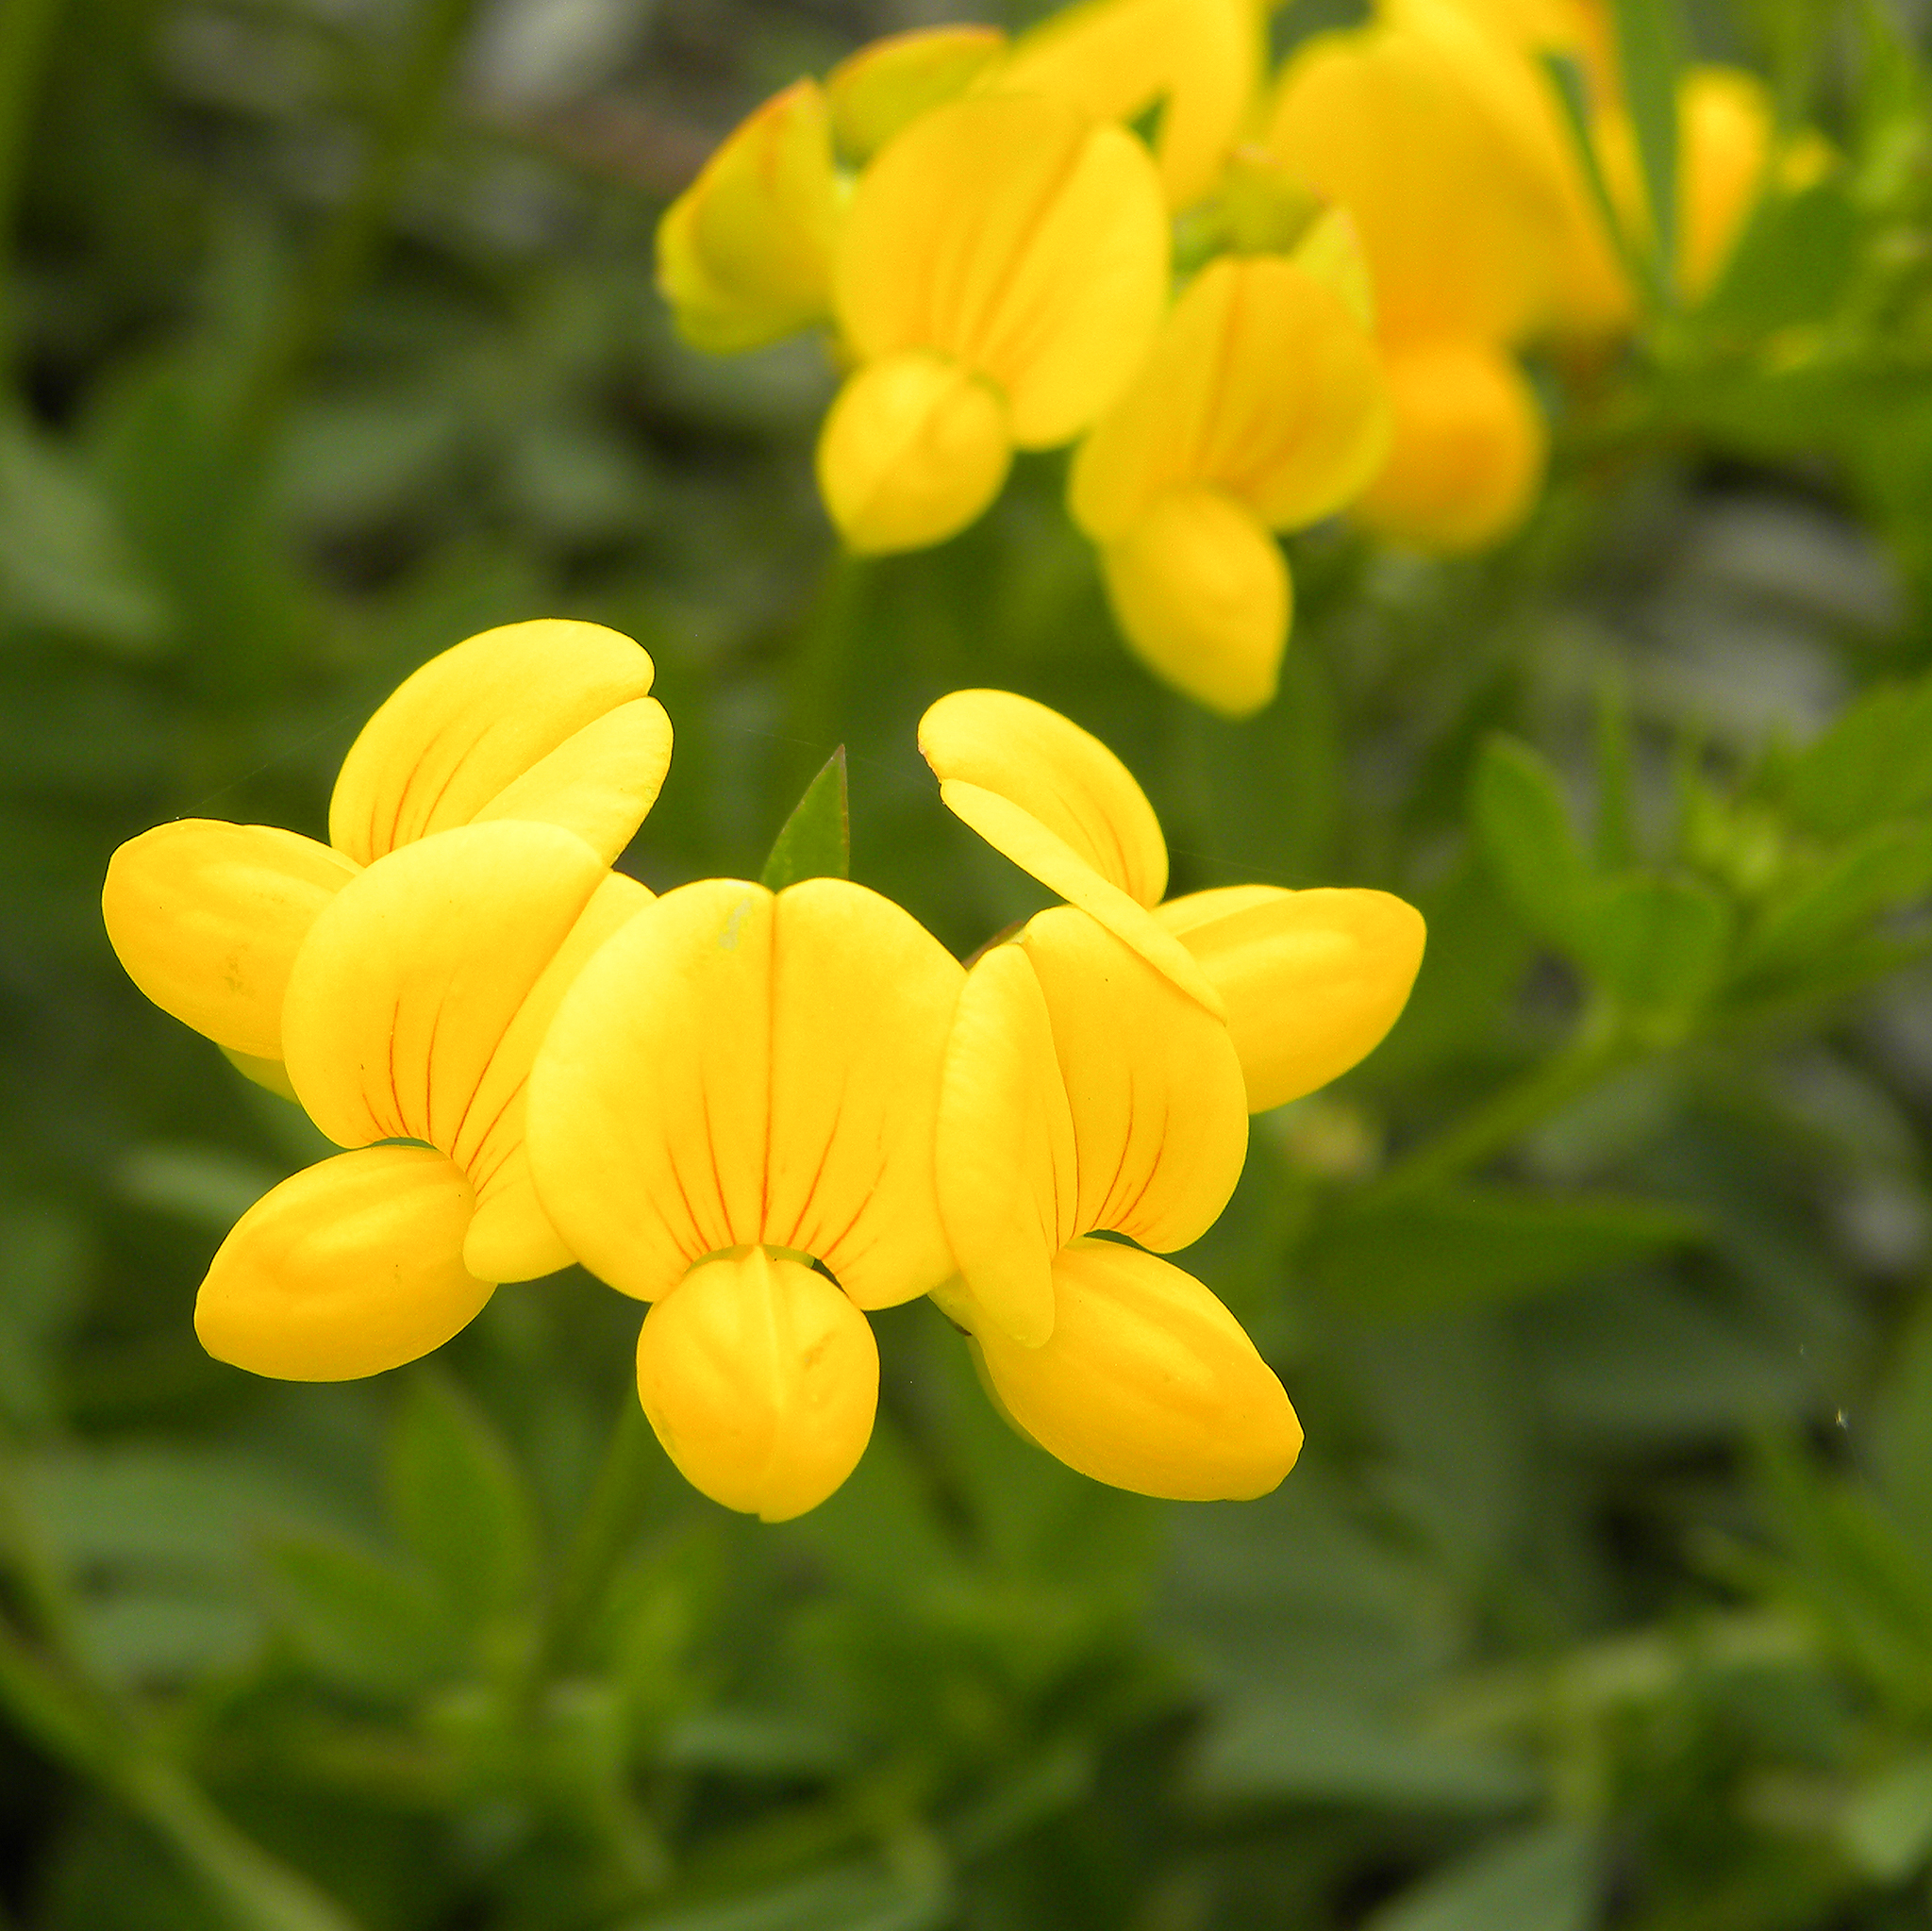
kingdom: Plantae
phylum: Tracheophyta
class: Magnoliopsida
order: Fabales
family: Fabaceae
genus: Lotus
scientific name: Lotus corniculatus
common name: Common bird's-foot-trefoil
